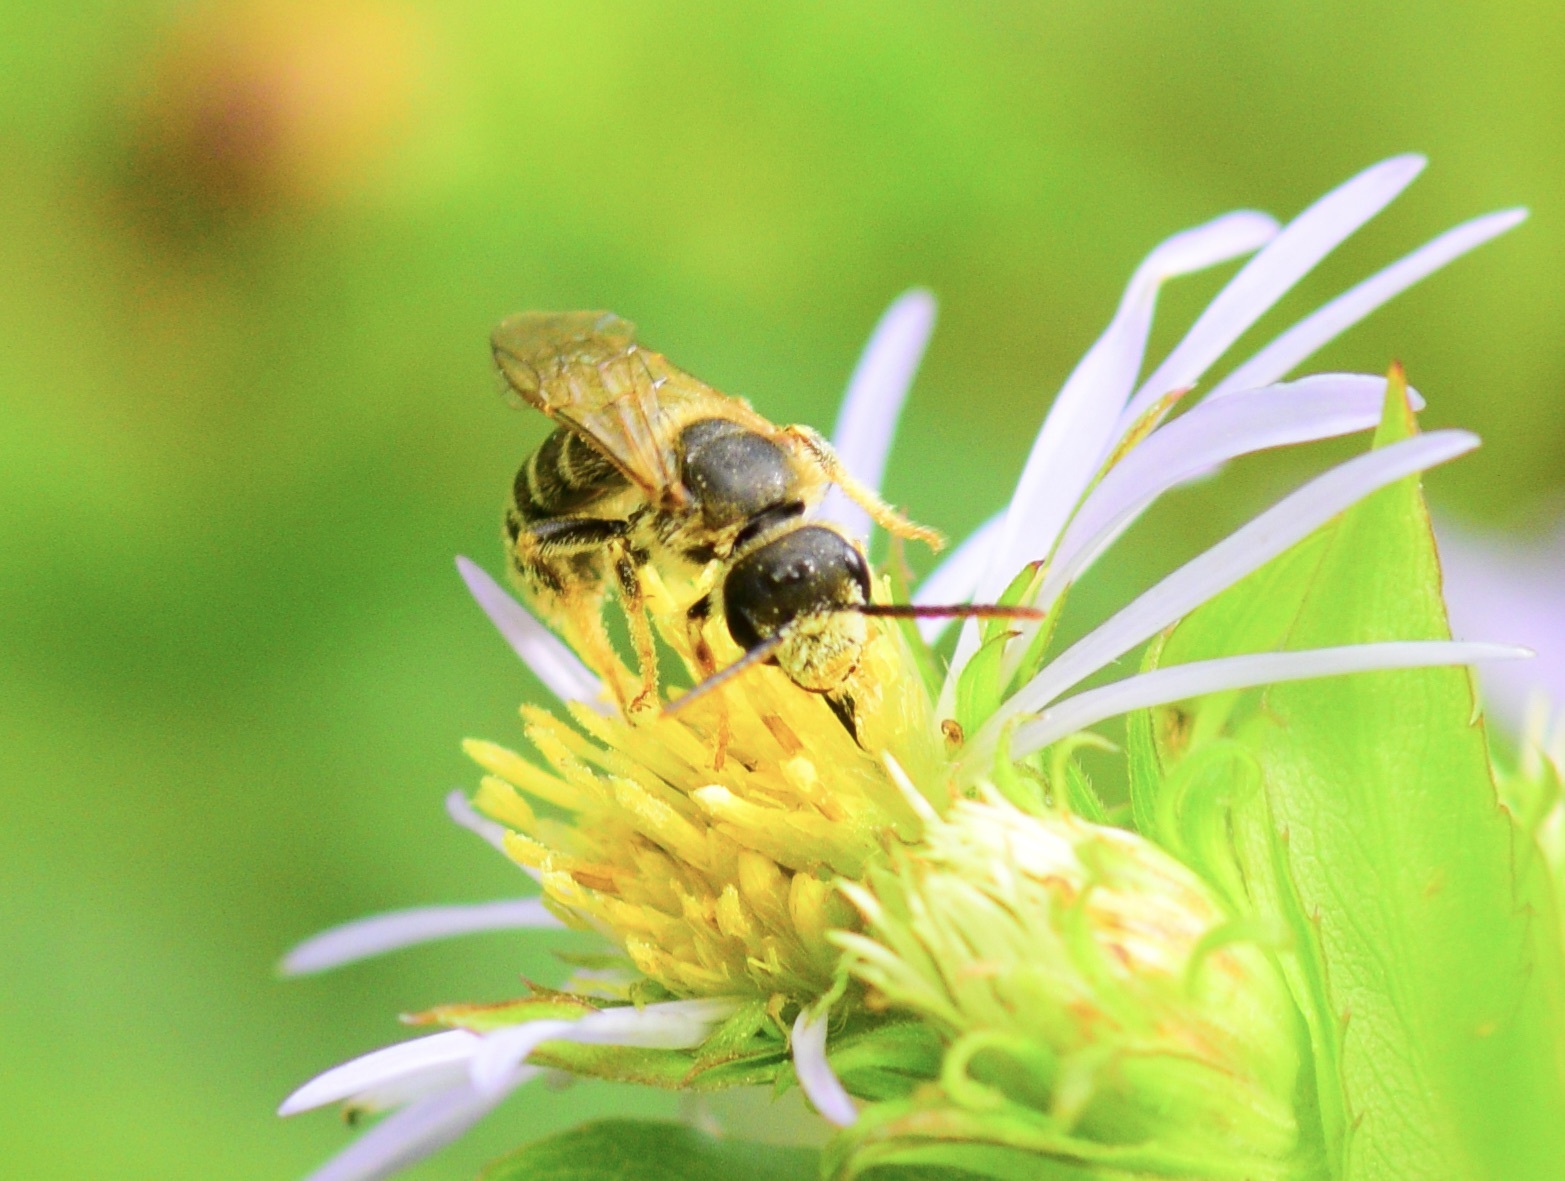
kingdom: Animalia
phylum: Arthropoda
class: Insecta
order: Hymenoptera
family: Halictidae
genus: Halictus
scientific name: Halictus ligatus
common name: Ligated furrow bee
